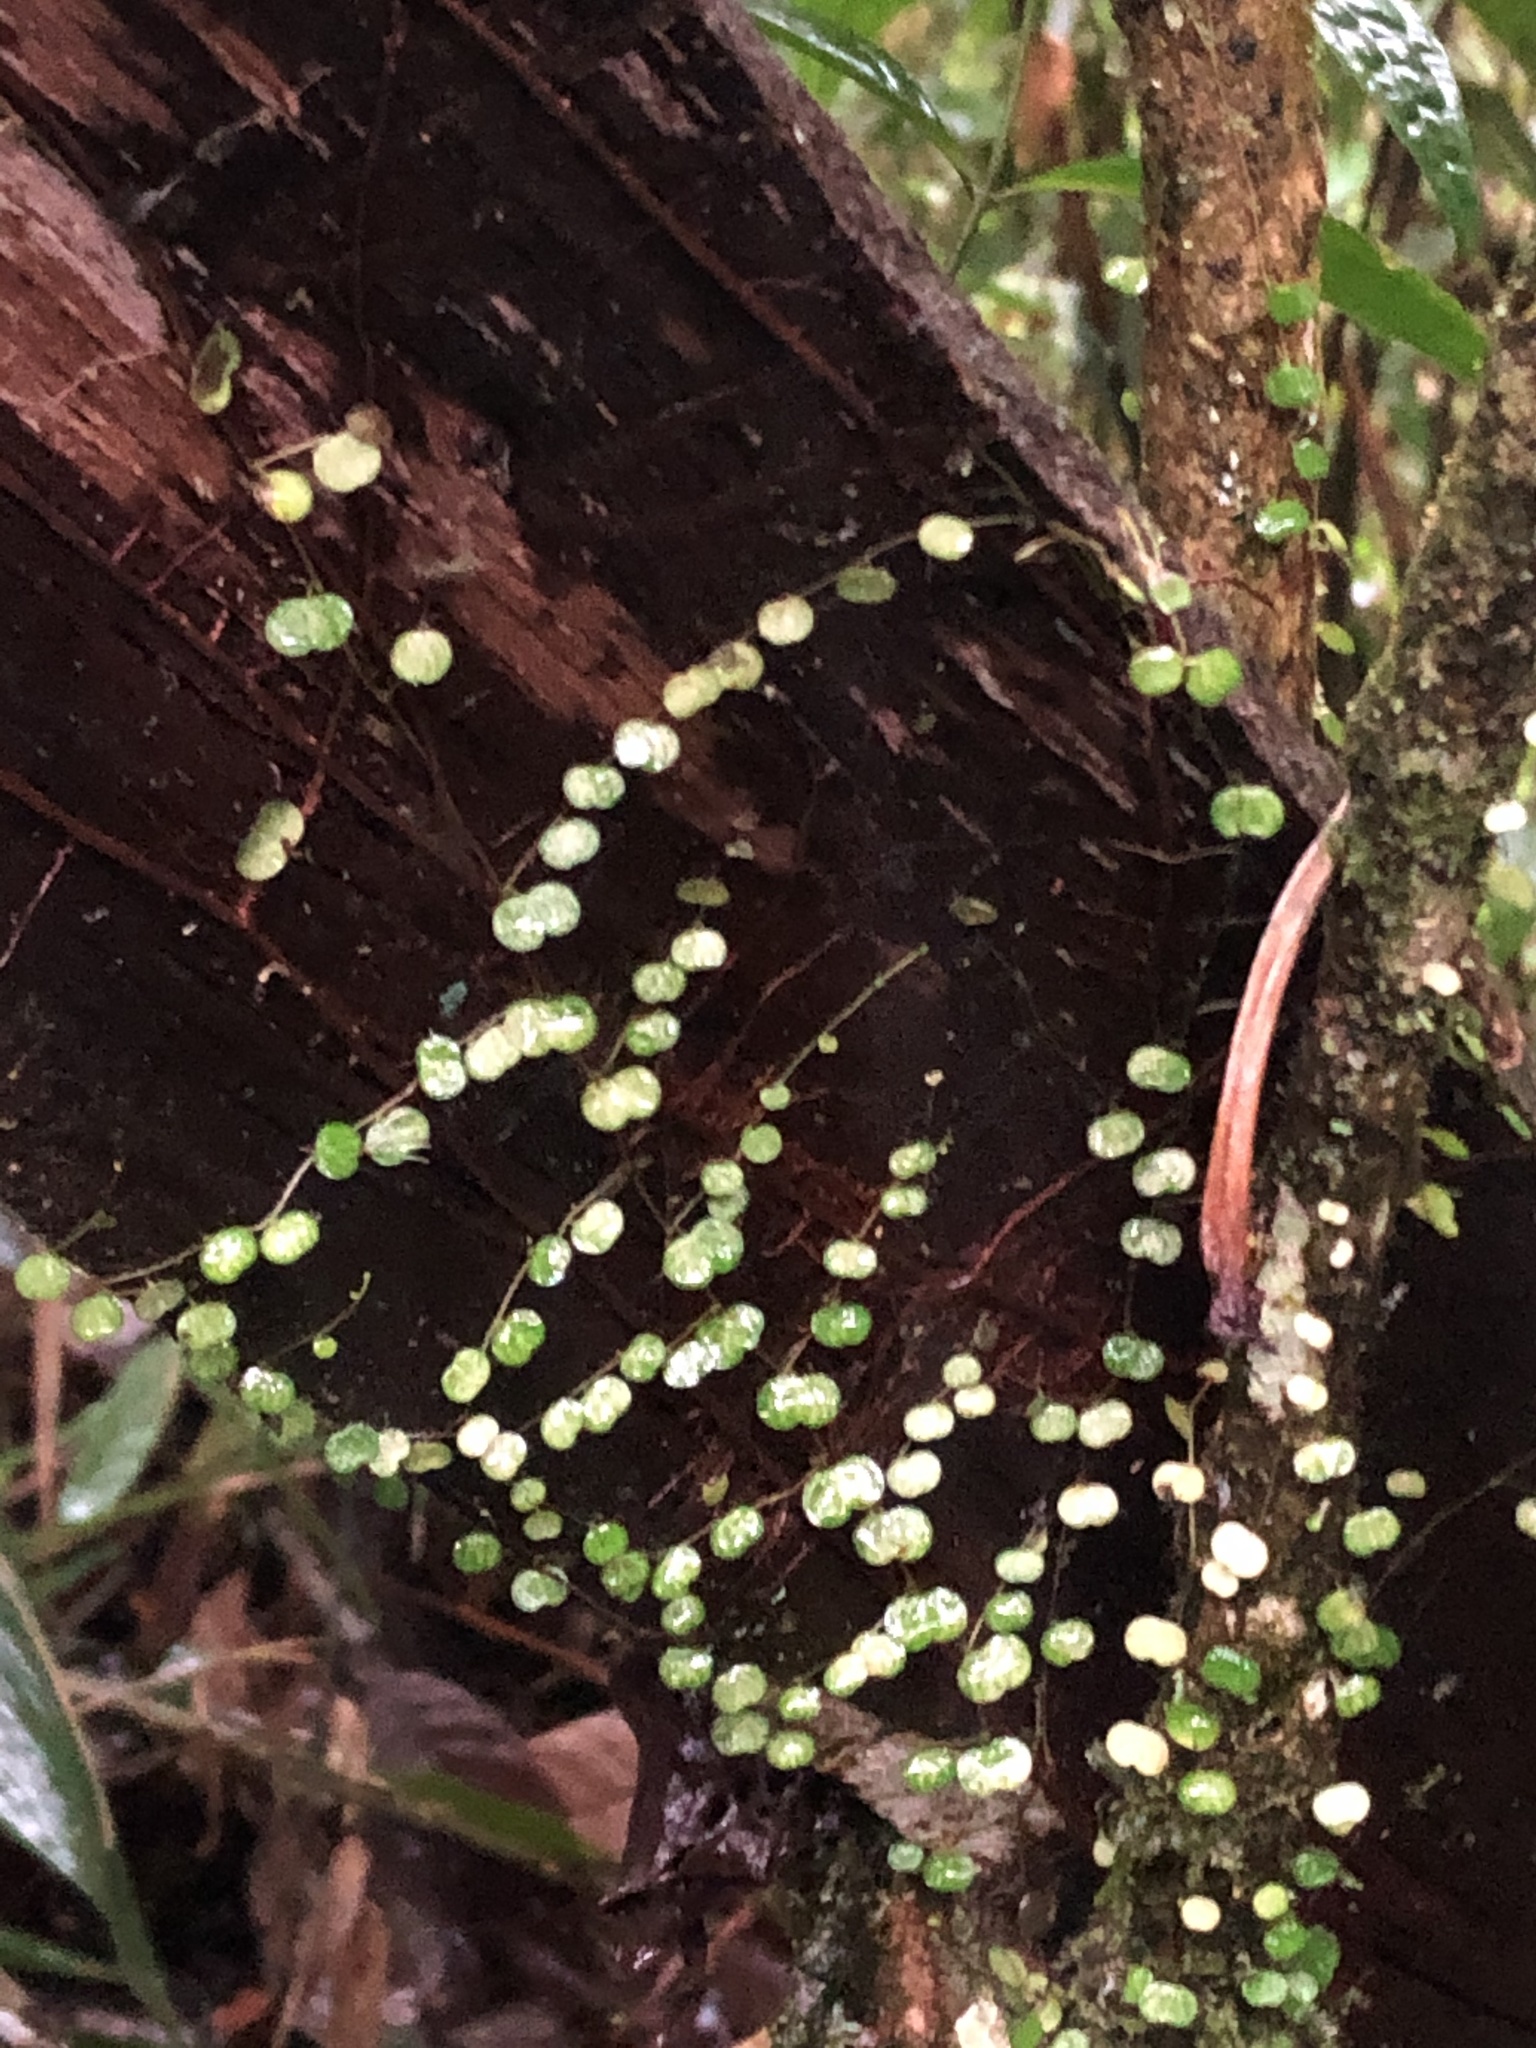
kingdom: Plantae
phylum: Tracheophyta
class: Magnoliopsida
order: Piperales
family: Piperaceae
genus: Peperomia
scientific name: Peperomia emarginella
